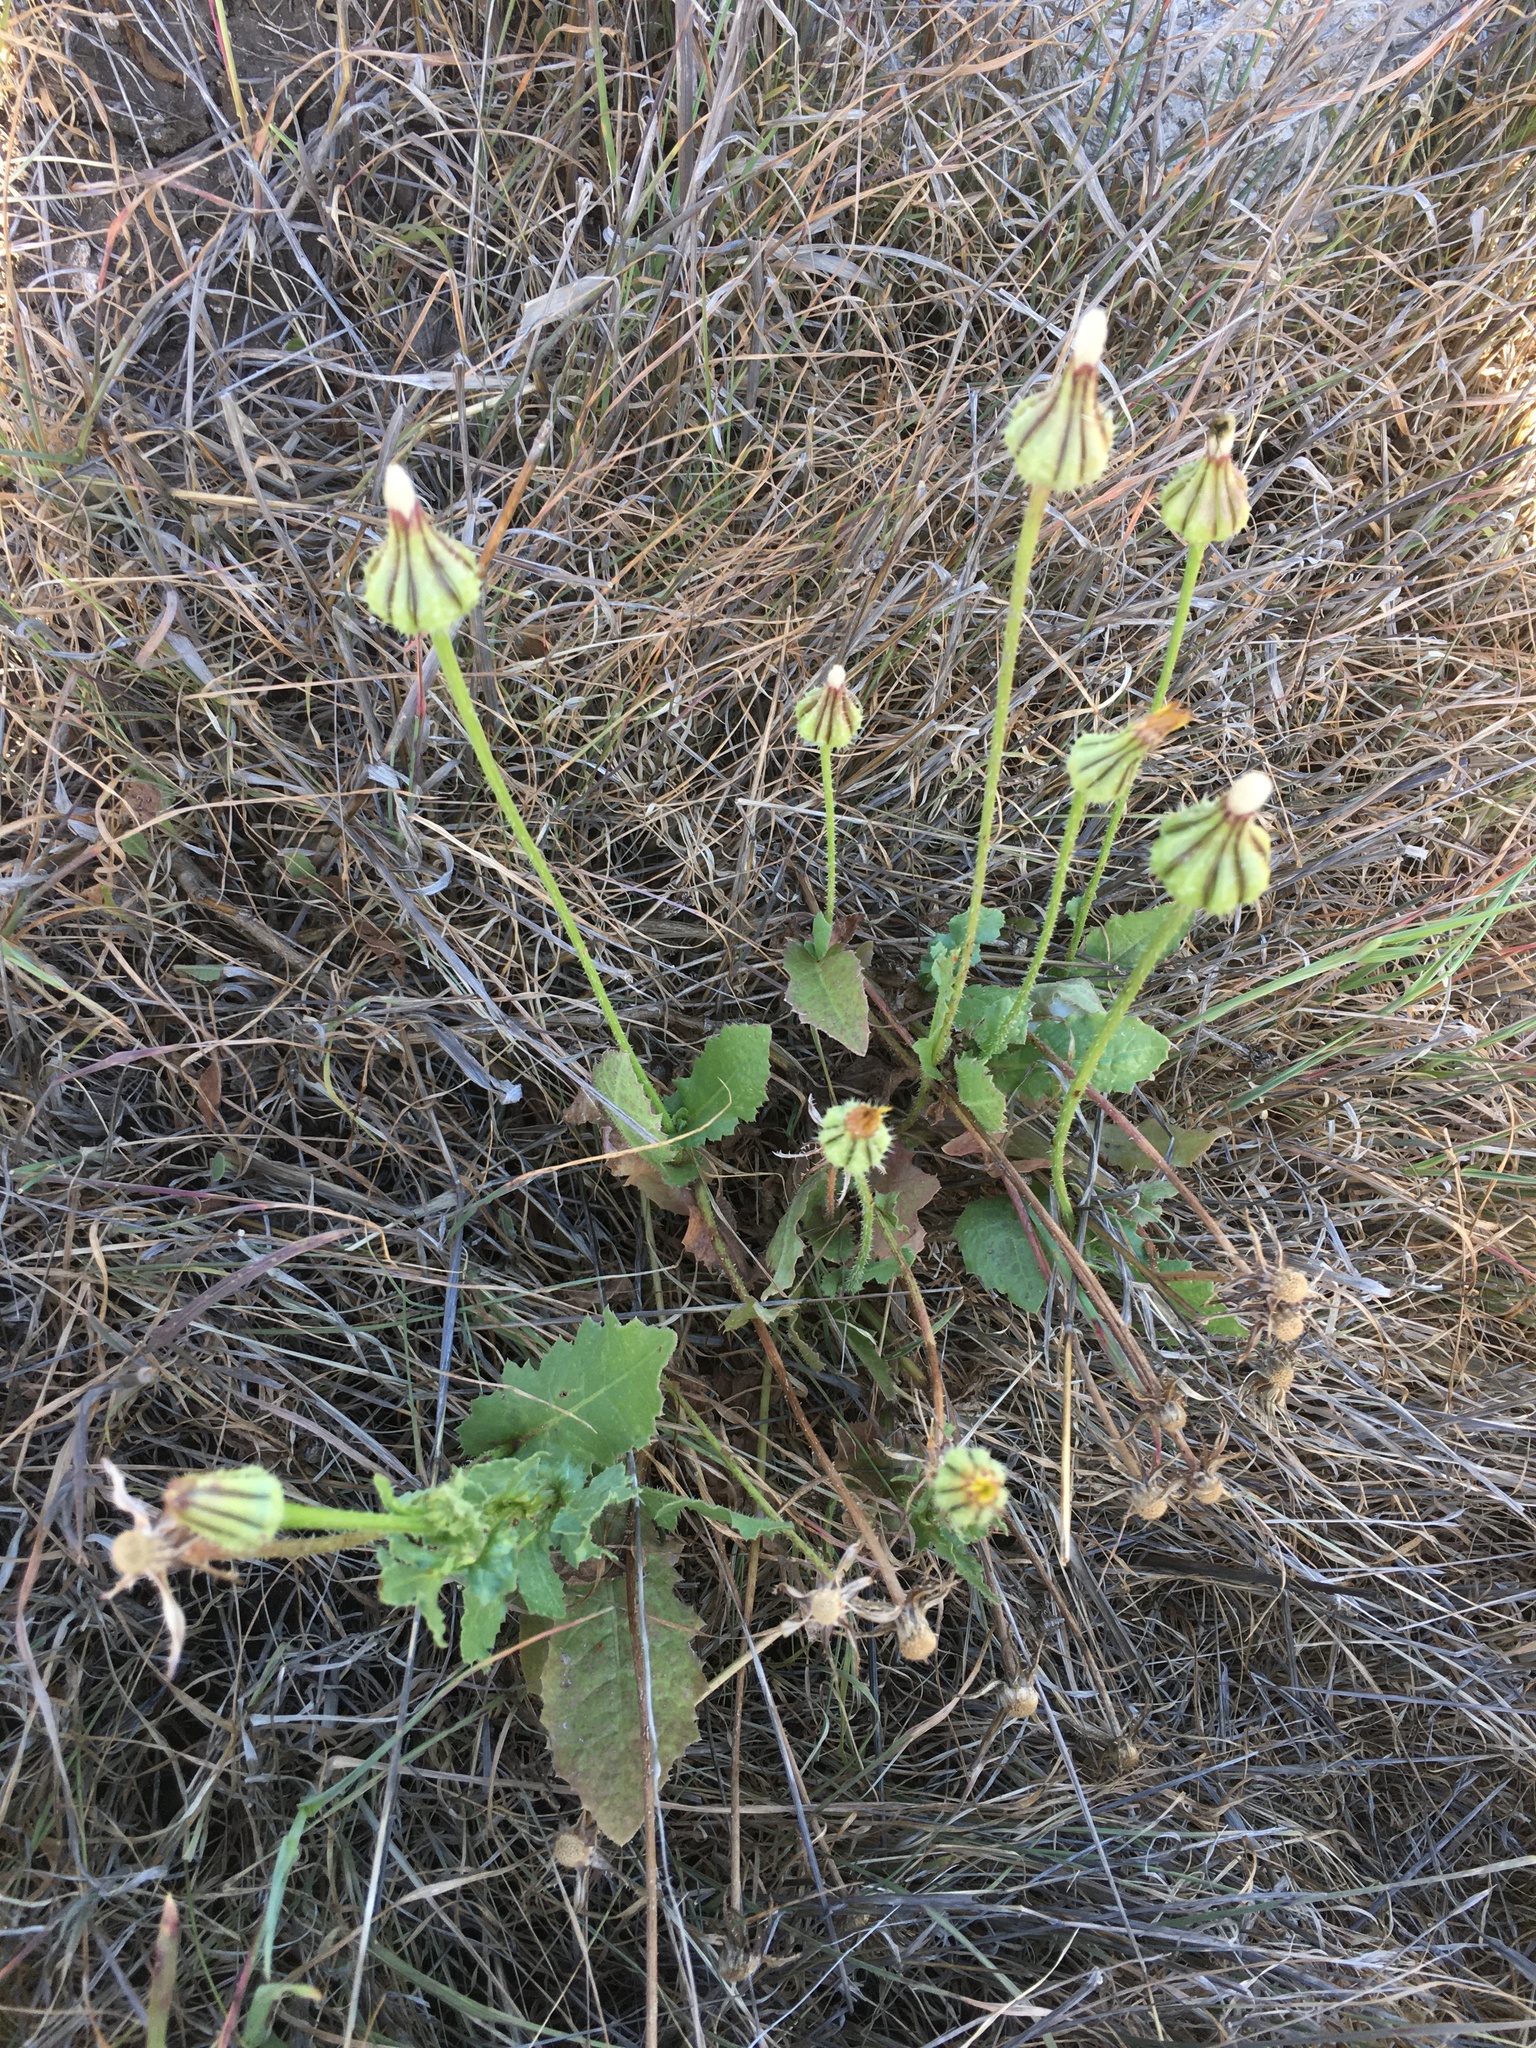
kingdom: Plantae
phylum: Tracheophyta
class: Magnoliopsida
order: Asterales
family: Asteraceae
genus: Urospermum
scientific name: Urospermum picroides
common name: False hawkbit
